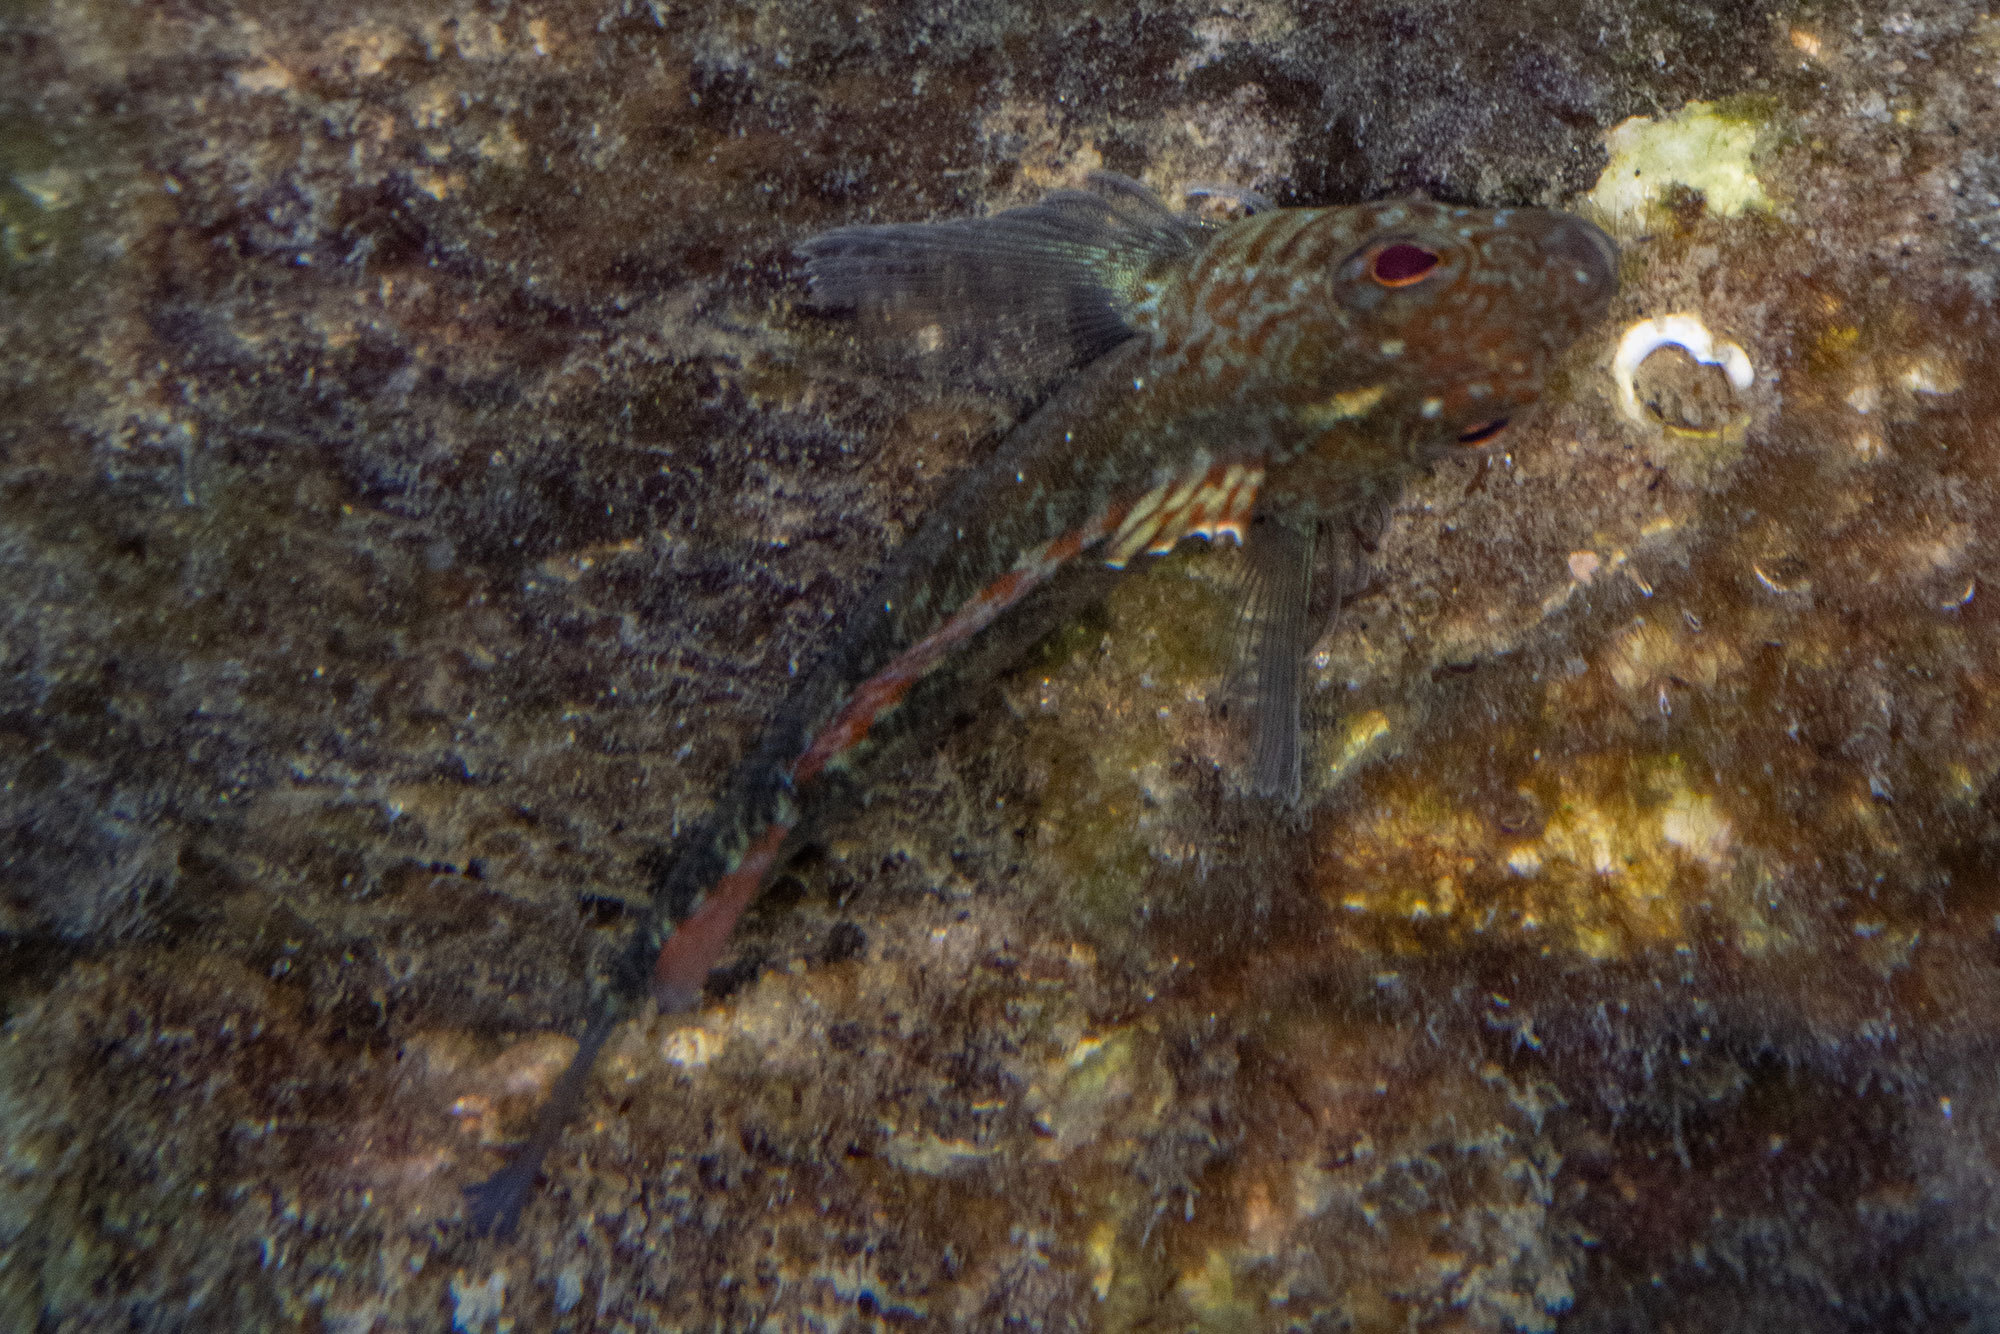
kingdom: Animalia
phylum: Chordata
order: Perciformes
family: Tripterygiidae
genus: Forsterygion
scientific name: Forsterygion lapillum
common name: Common triplefin
